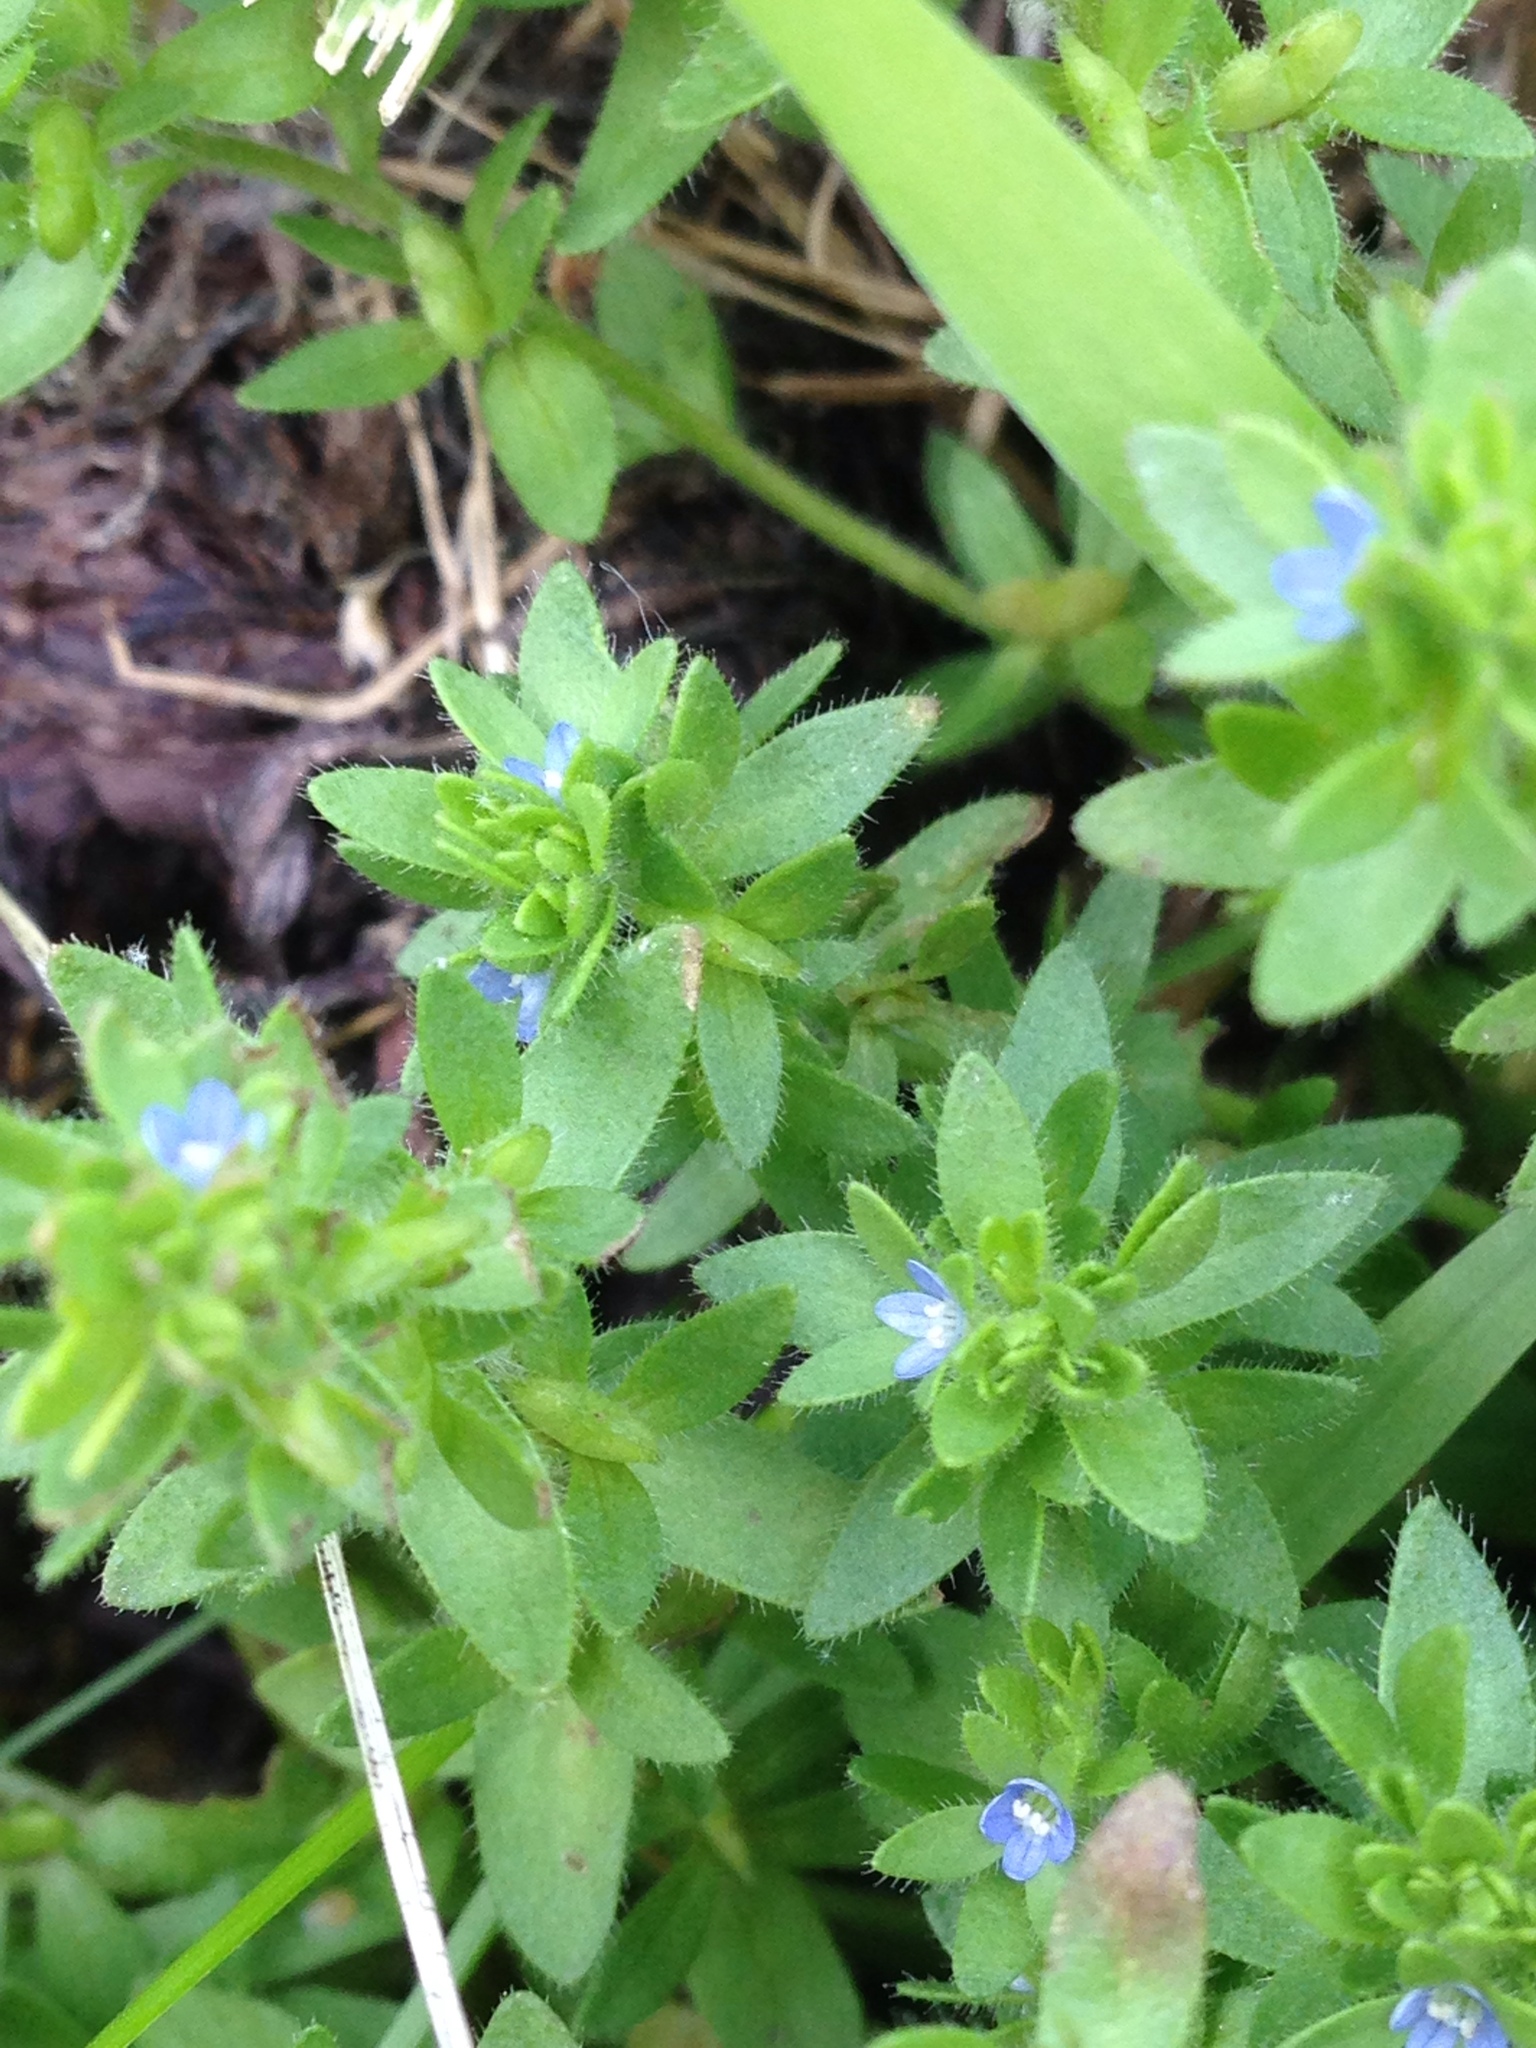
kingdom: Plantae
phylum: Tracheophyta
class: Magnoliopsida
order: Lamiales
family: Plantaginaceae
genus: Veronica
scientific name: Veronica arvensis
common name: Corn speedwell
